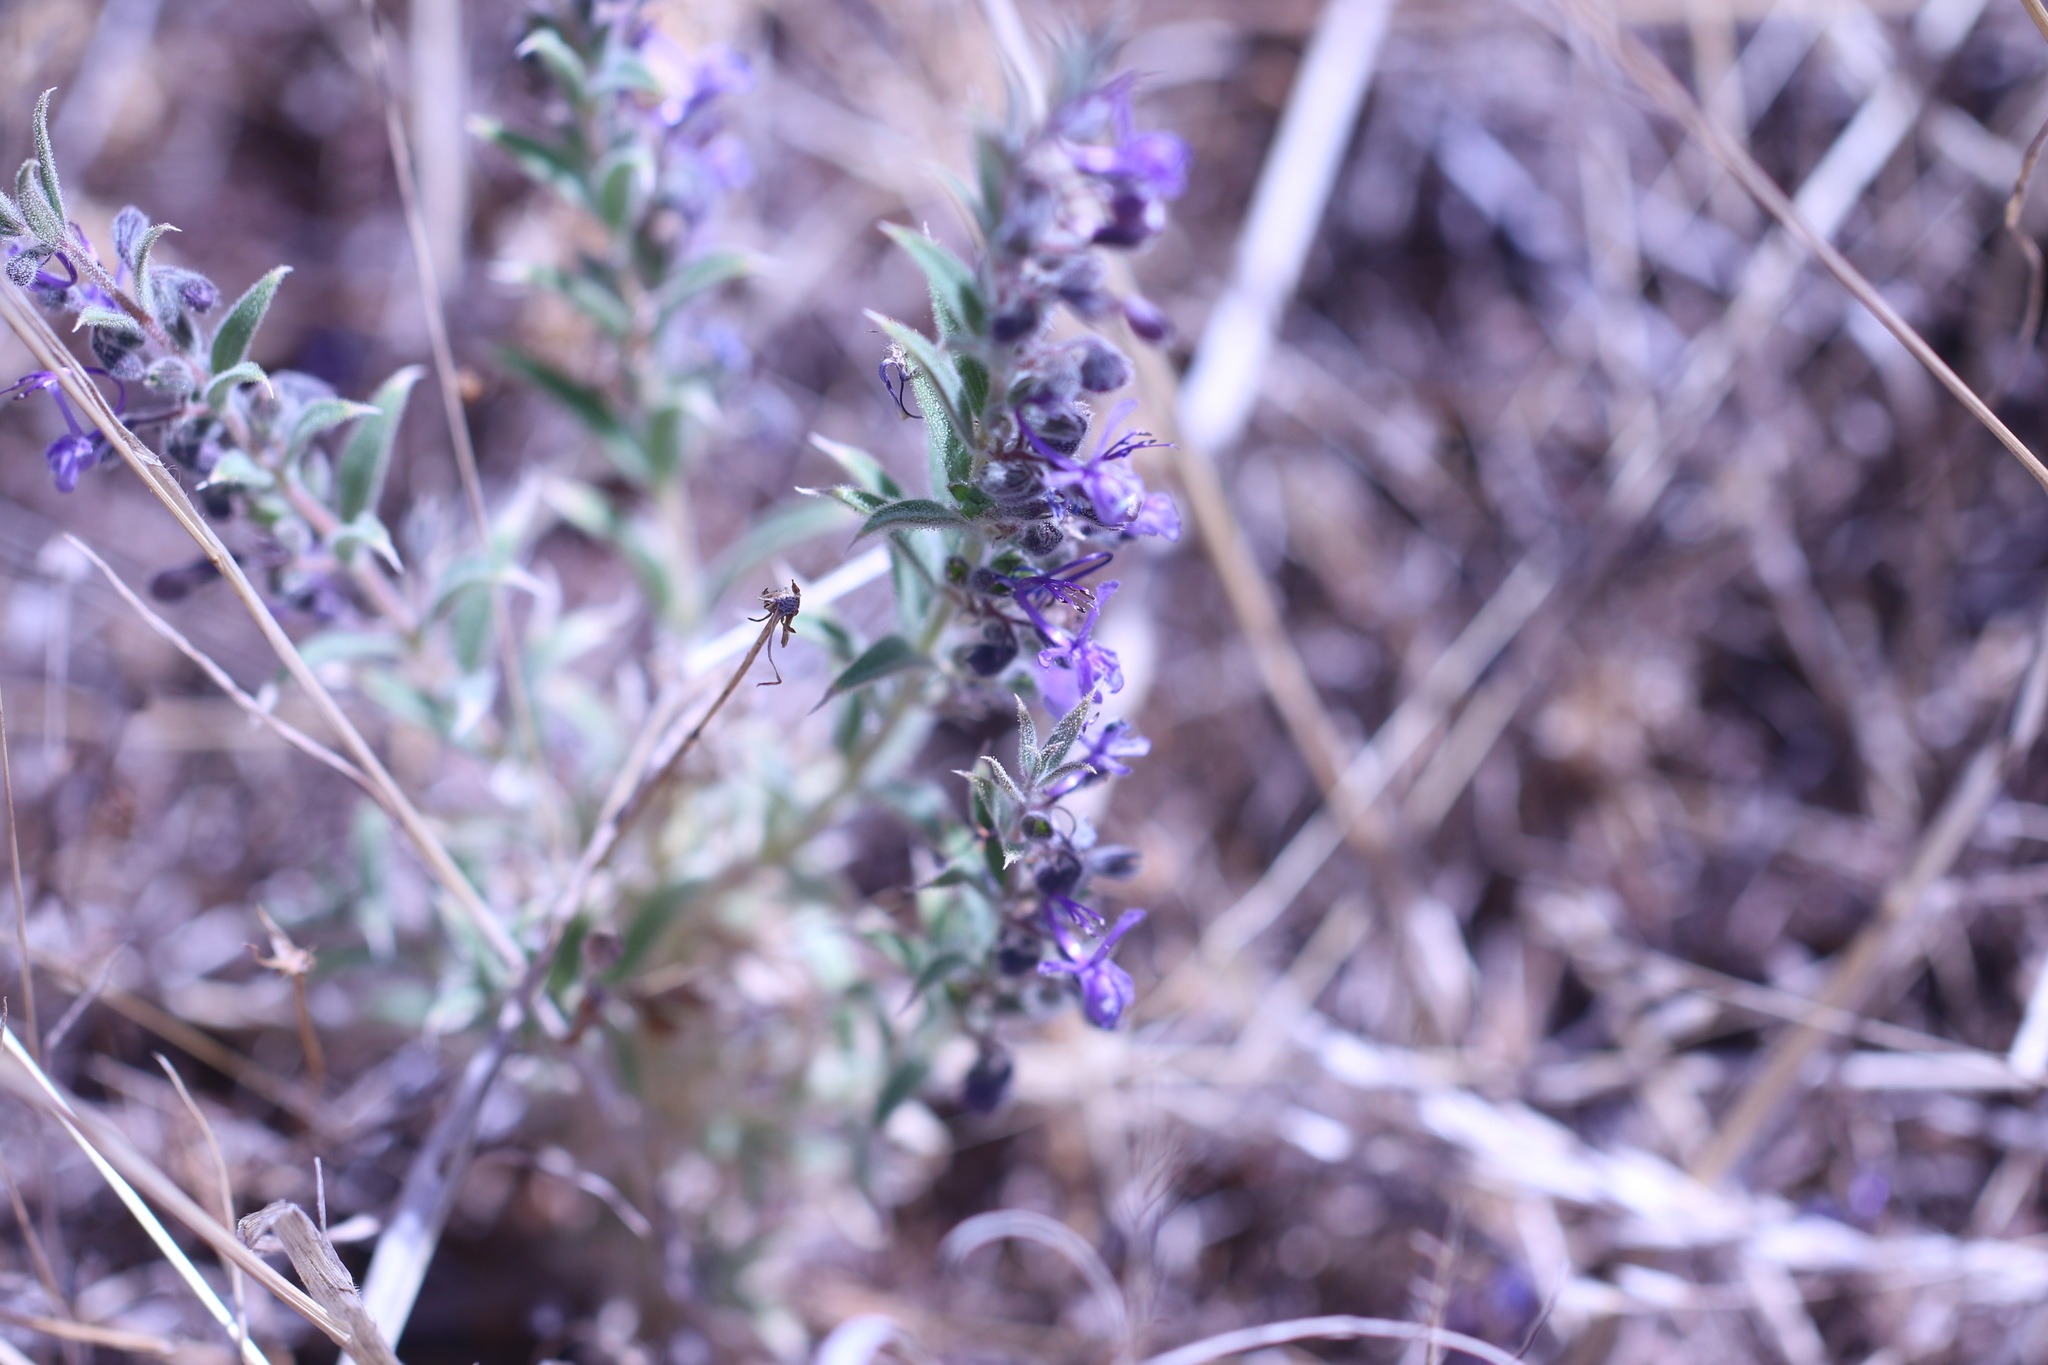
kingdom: Plantae
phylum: Tracheophyta
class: Magnoliopsida
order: Lamiales
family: Lamiaceae
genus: Trichostema
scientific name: Trichostema lanceolatum
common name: Vinegar-weed
